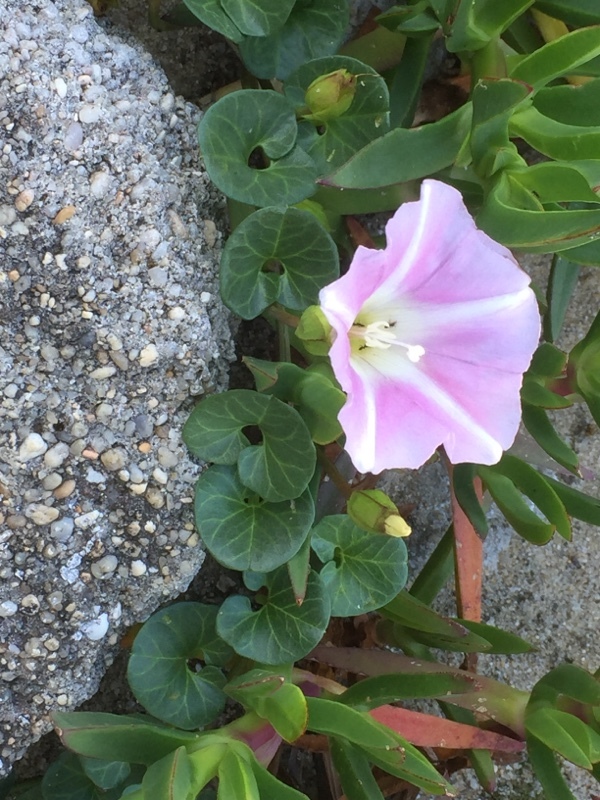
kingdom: Plantae
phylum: Tracheophyta
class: Magnoliopsida
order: Solanales
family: Convolvulaceae
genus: Calystegia
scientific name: Calystegia soldanella
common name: Sea bindweed
